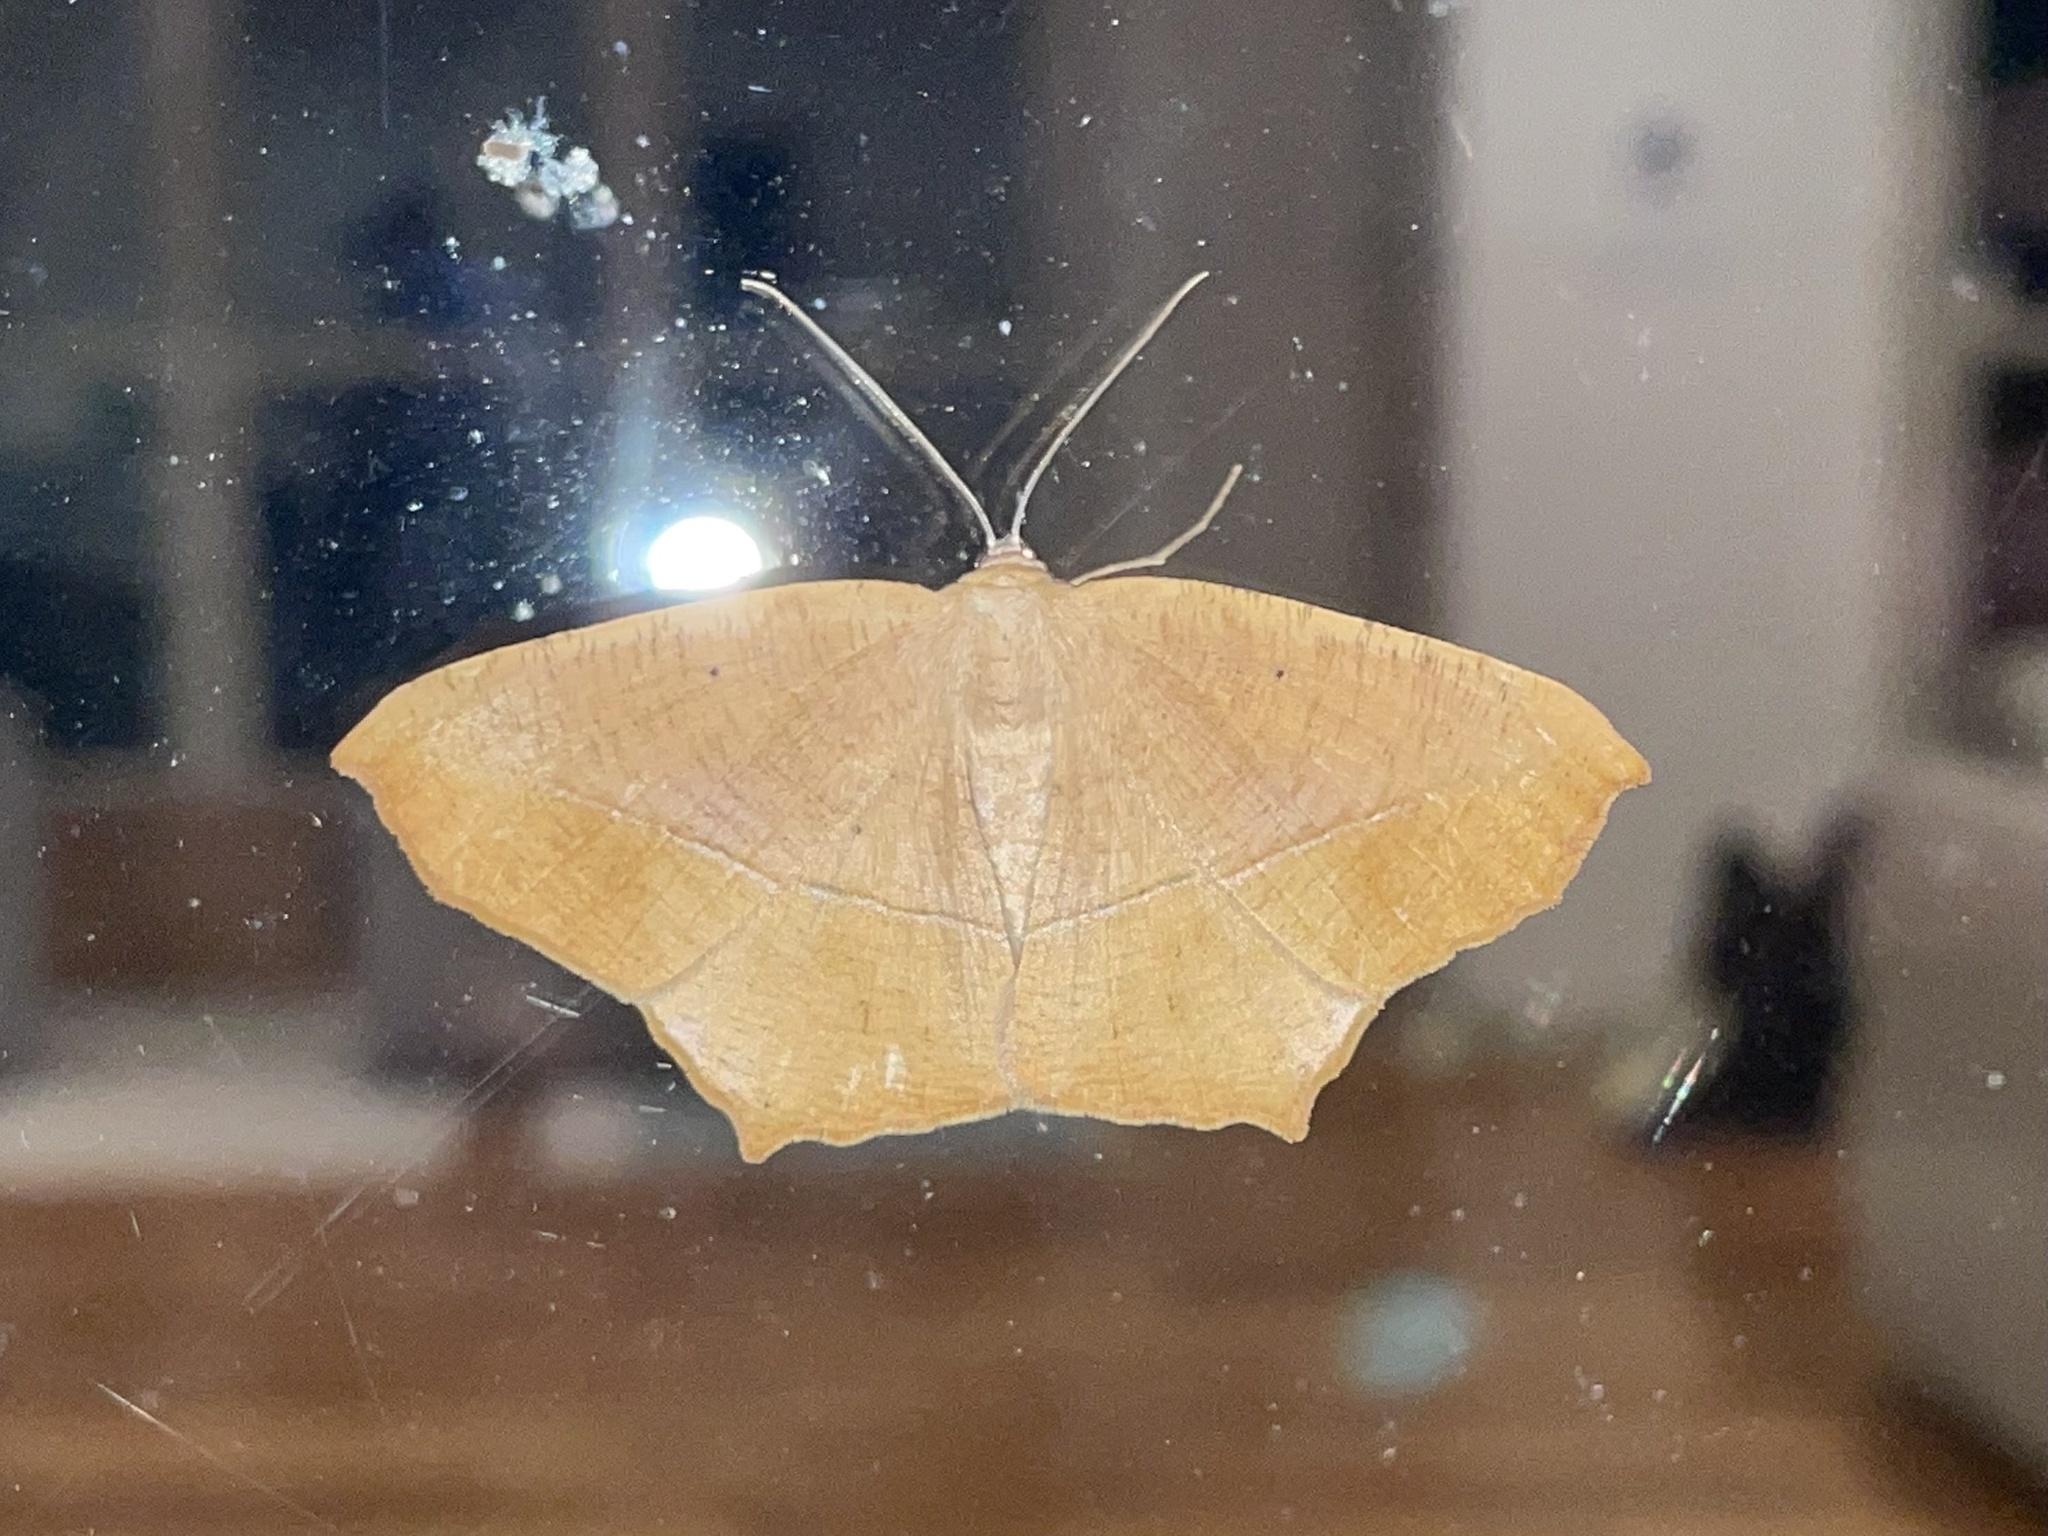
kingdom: Animalia
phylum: Arthropoda
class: Insecta
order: Lepidoptera
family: Geometridae
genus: Prochoerodes
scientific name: Prochoerodes lineola
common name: Large maple spanworm
